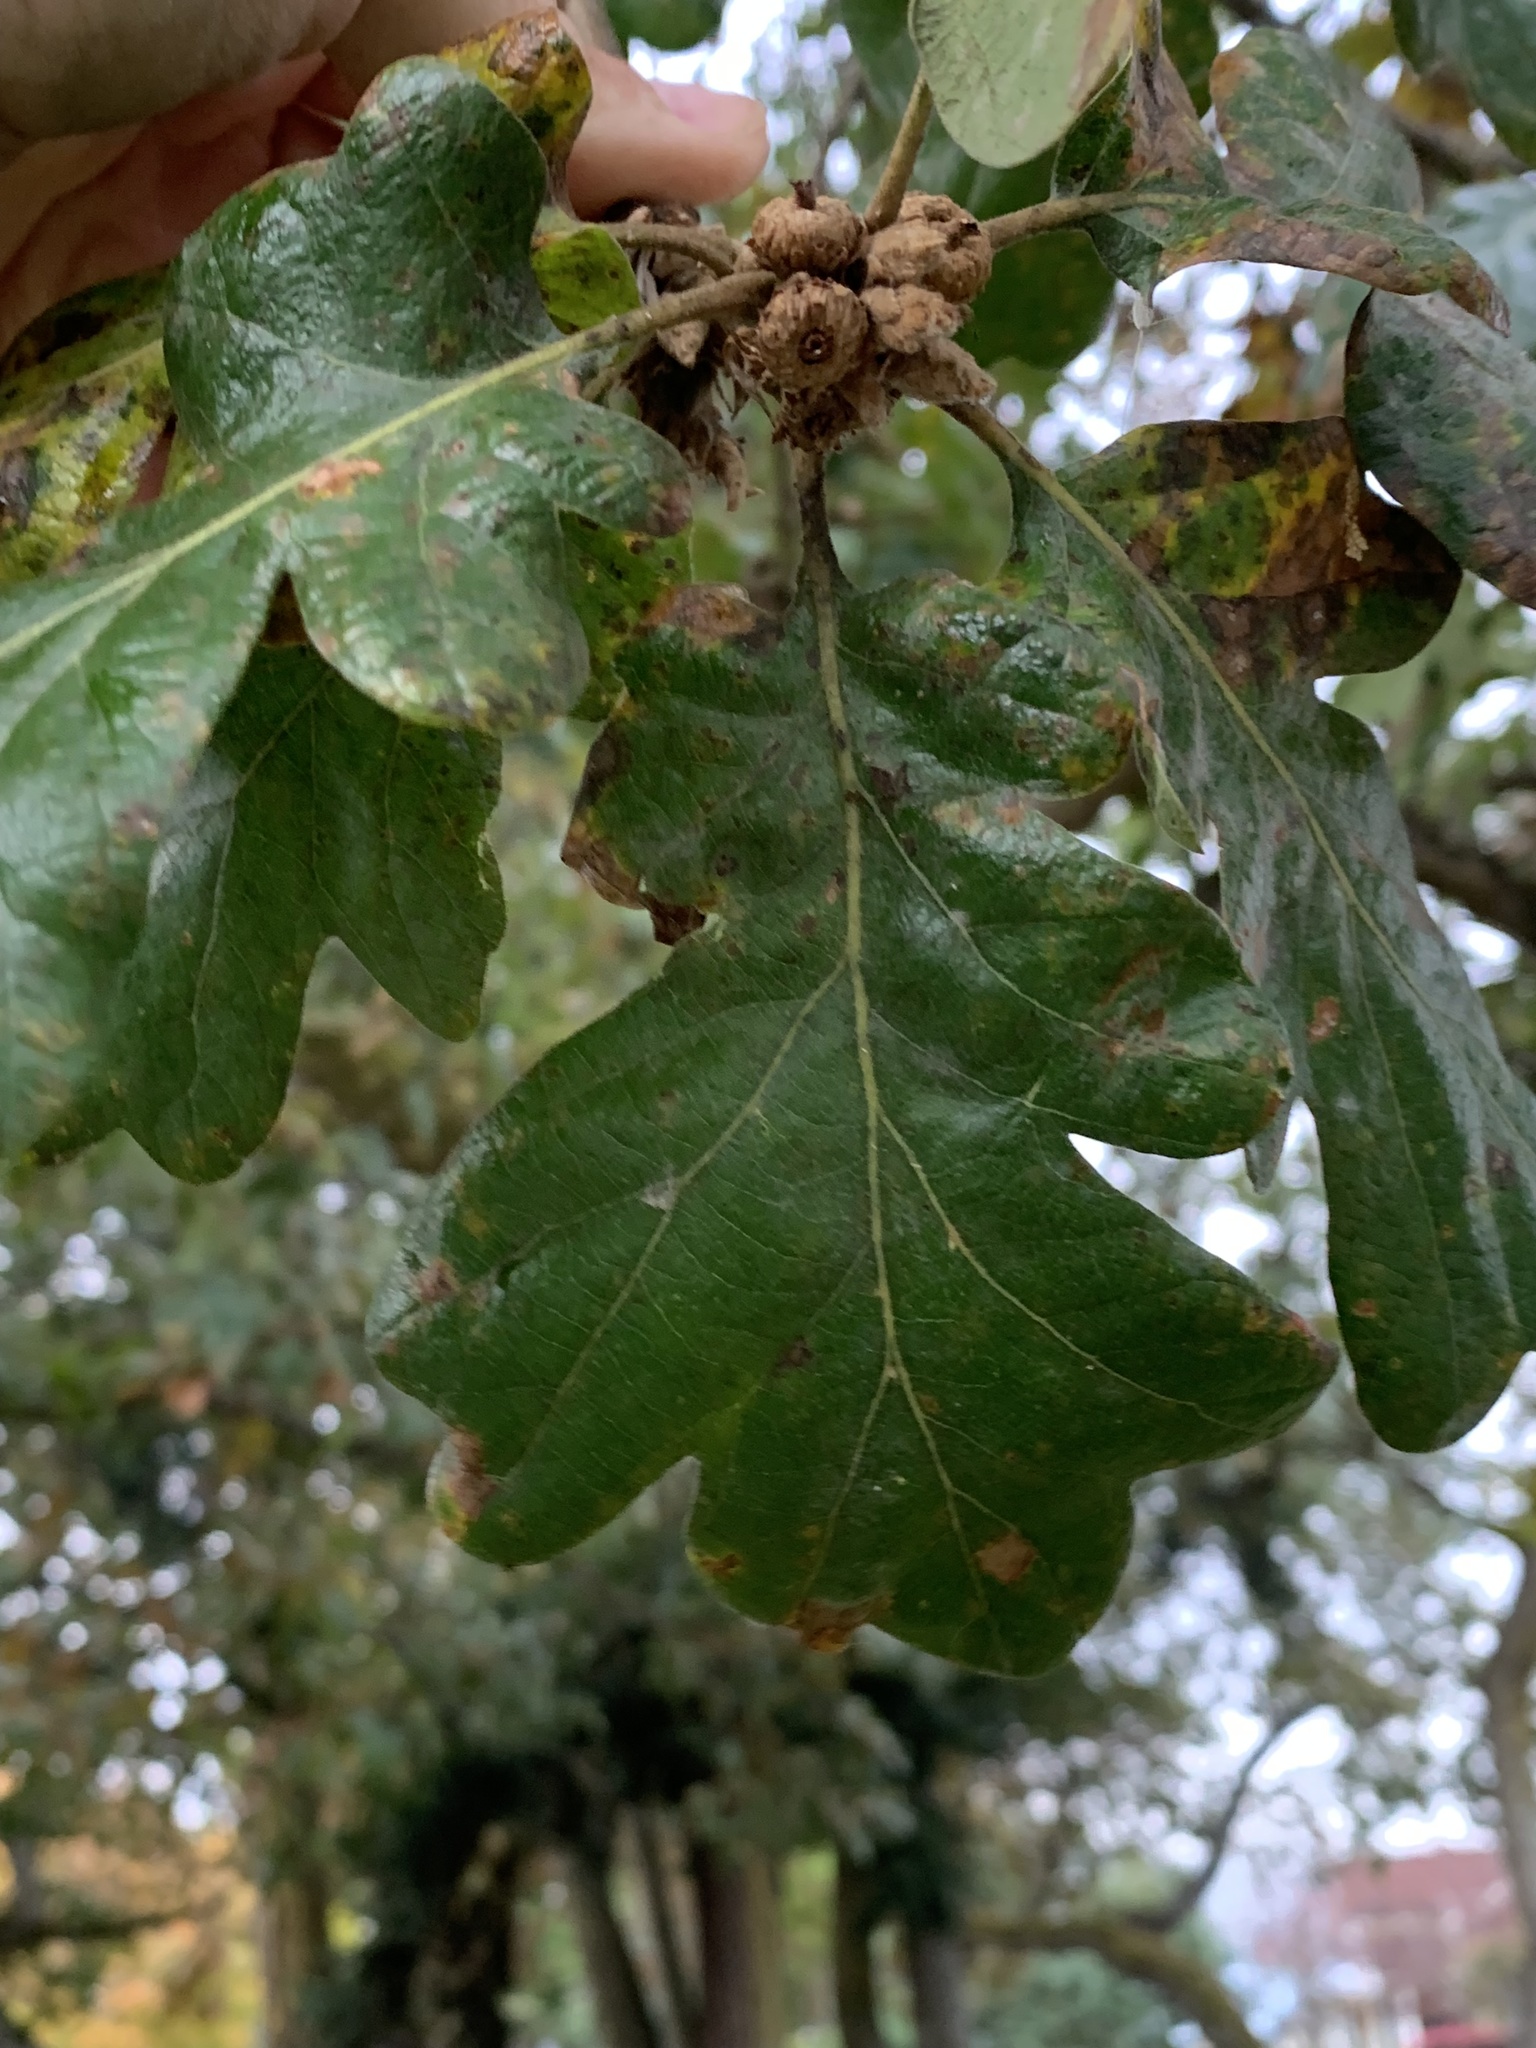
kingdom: Plantae
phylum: Tracheophyta
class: Magnoliopsida
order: Fagales
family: Fagaceae
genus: Quercus
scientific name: Quercus garryana
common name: Garry oak
